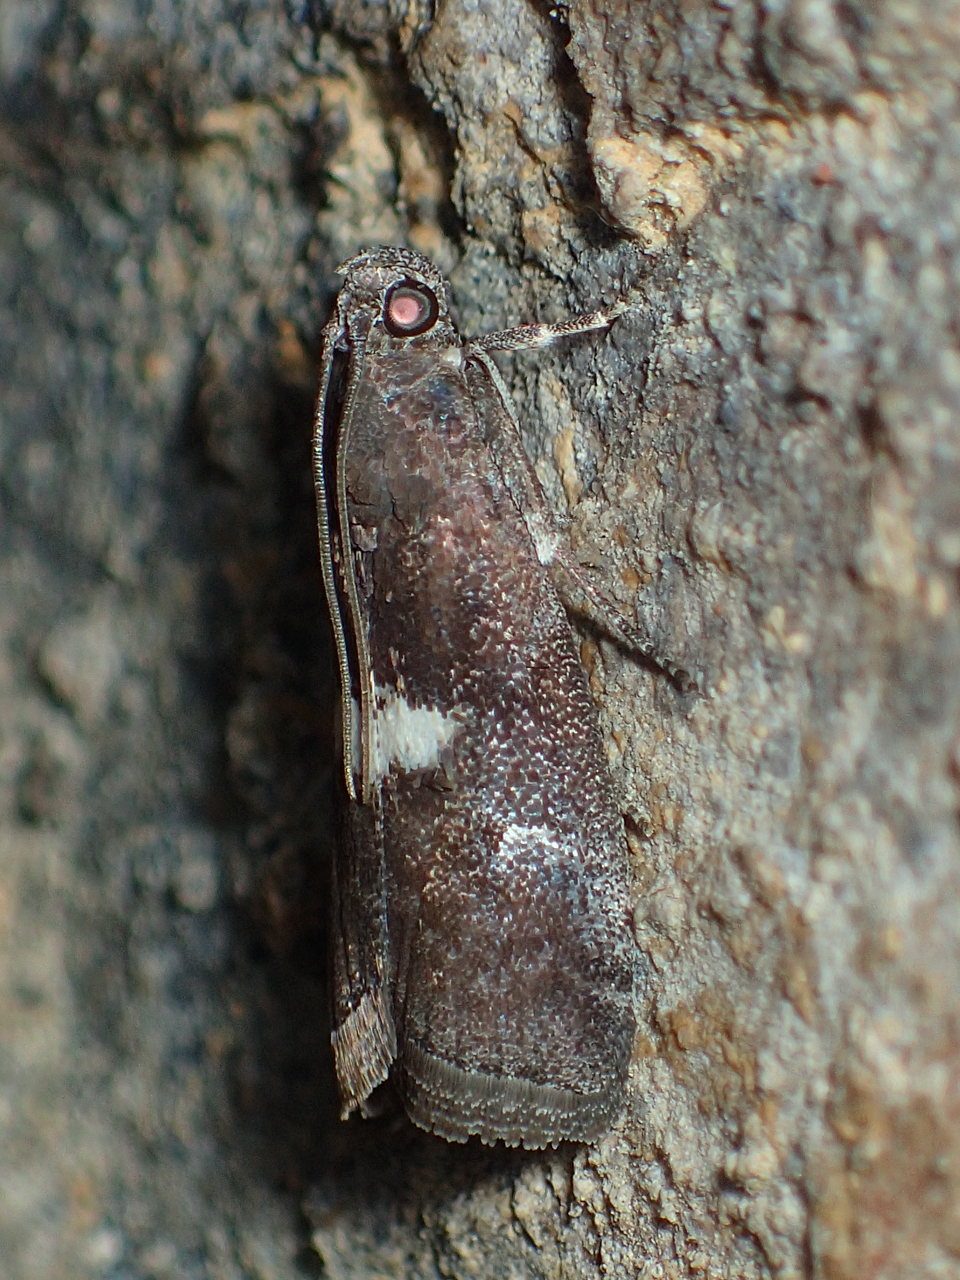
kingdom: Animalia
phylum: Arthropoda
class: Insecta
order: Lepidoptera
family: Pyralidae
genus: Salebriaria
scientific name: Salebriaria engeli
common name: Engel's salebriaria moth
